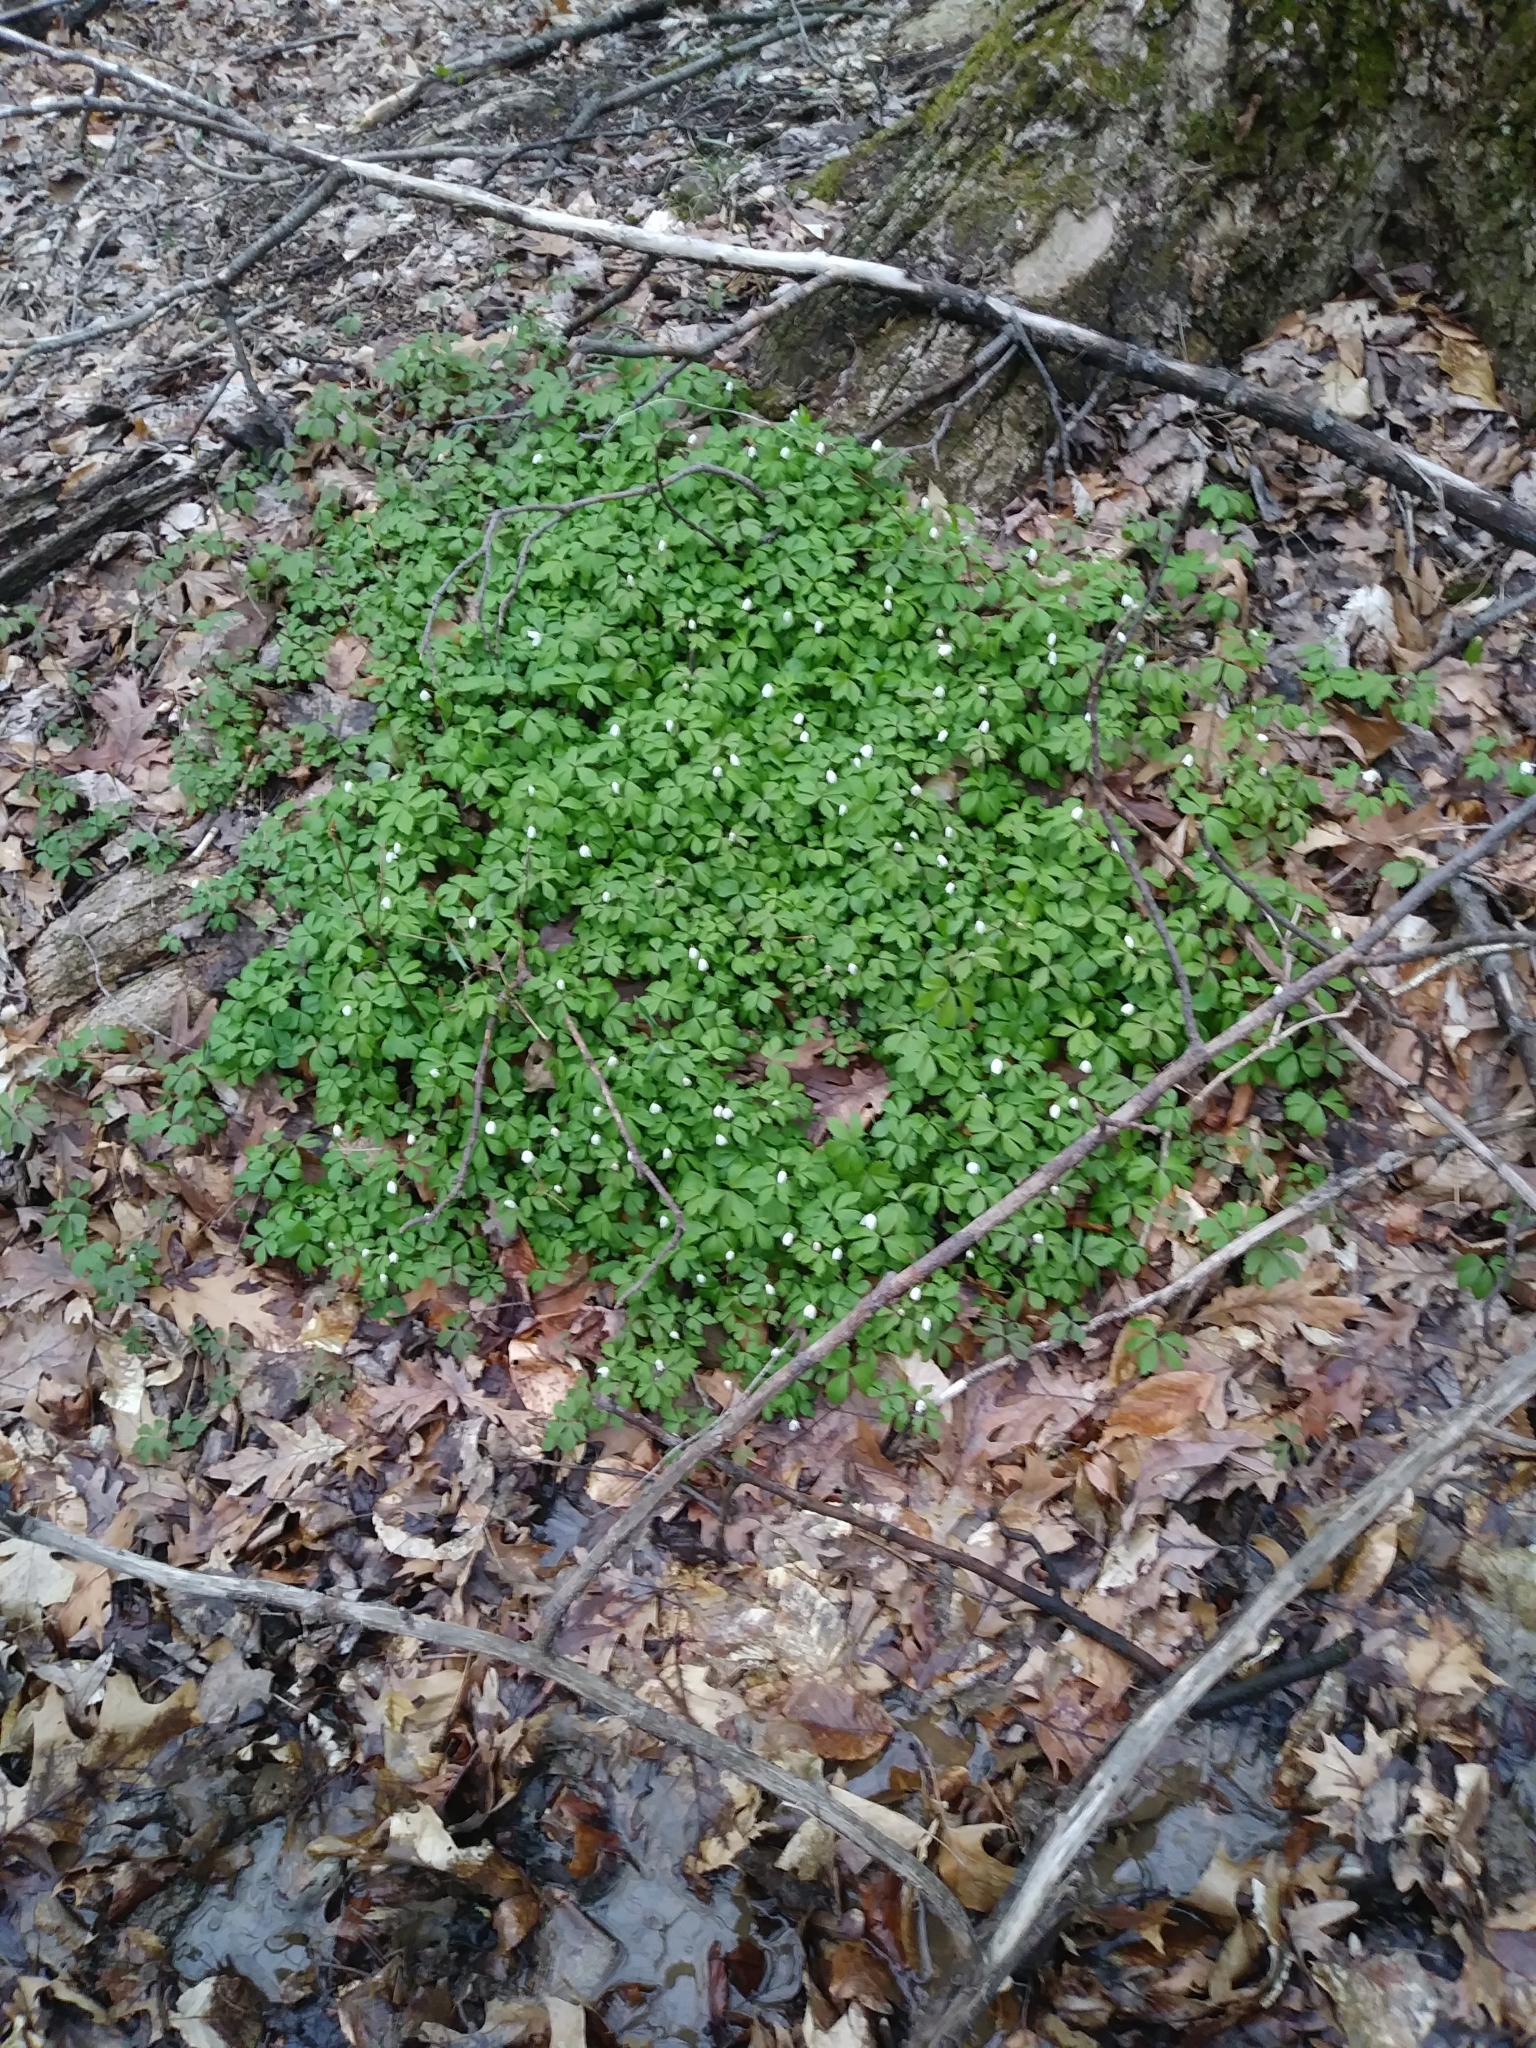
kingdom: Plantae
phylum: Tracheophyta
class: Magnoliopsida
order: Ranunculales
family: Ranunculaceae
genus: Anemone
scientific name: Anemone quinquefolia
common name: Wood anemone
